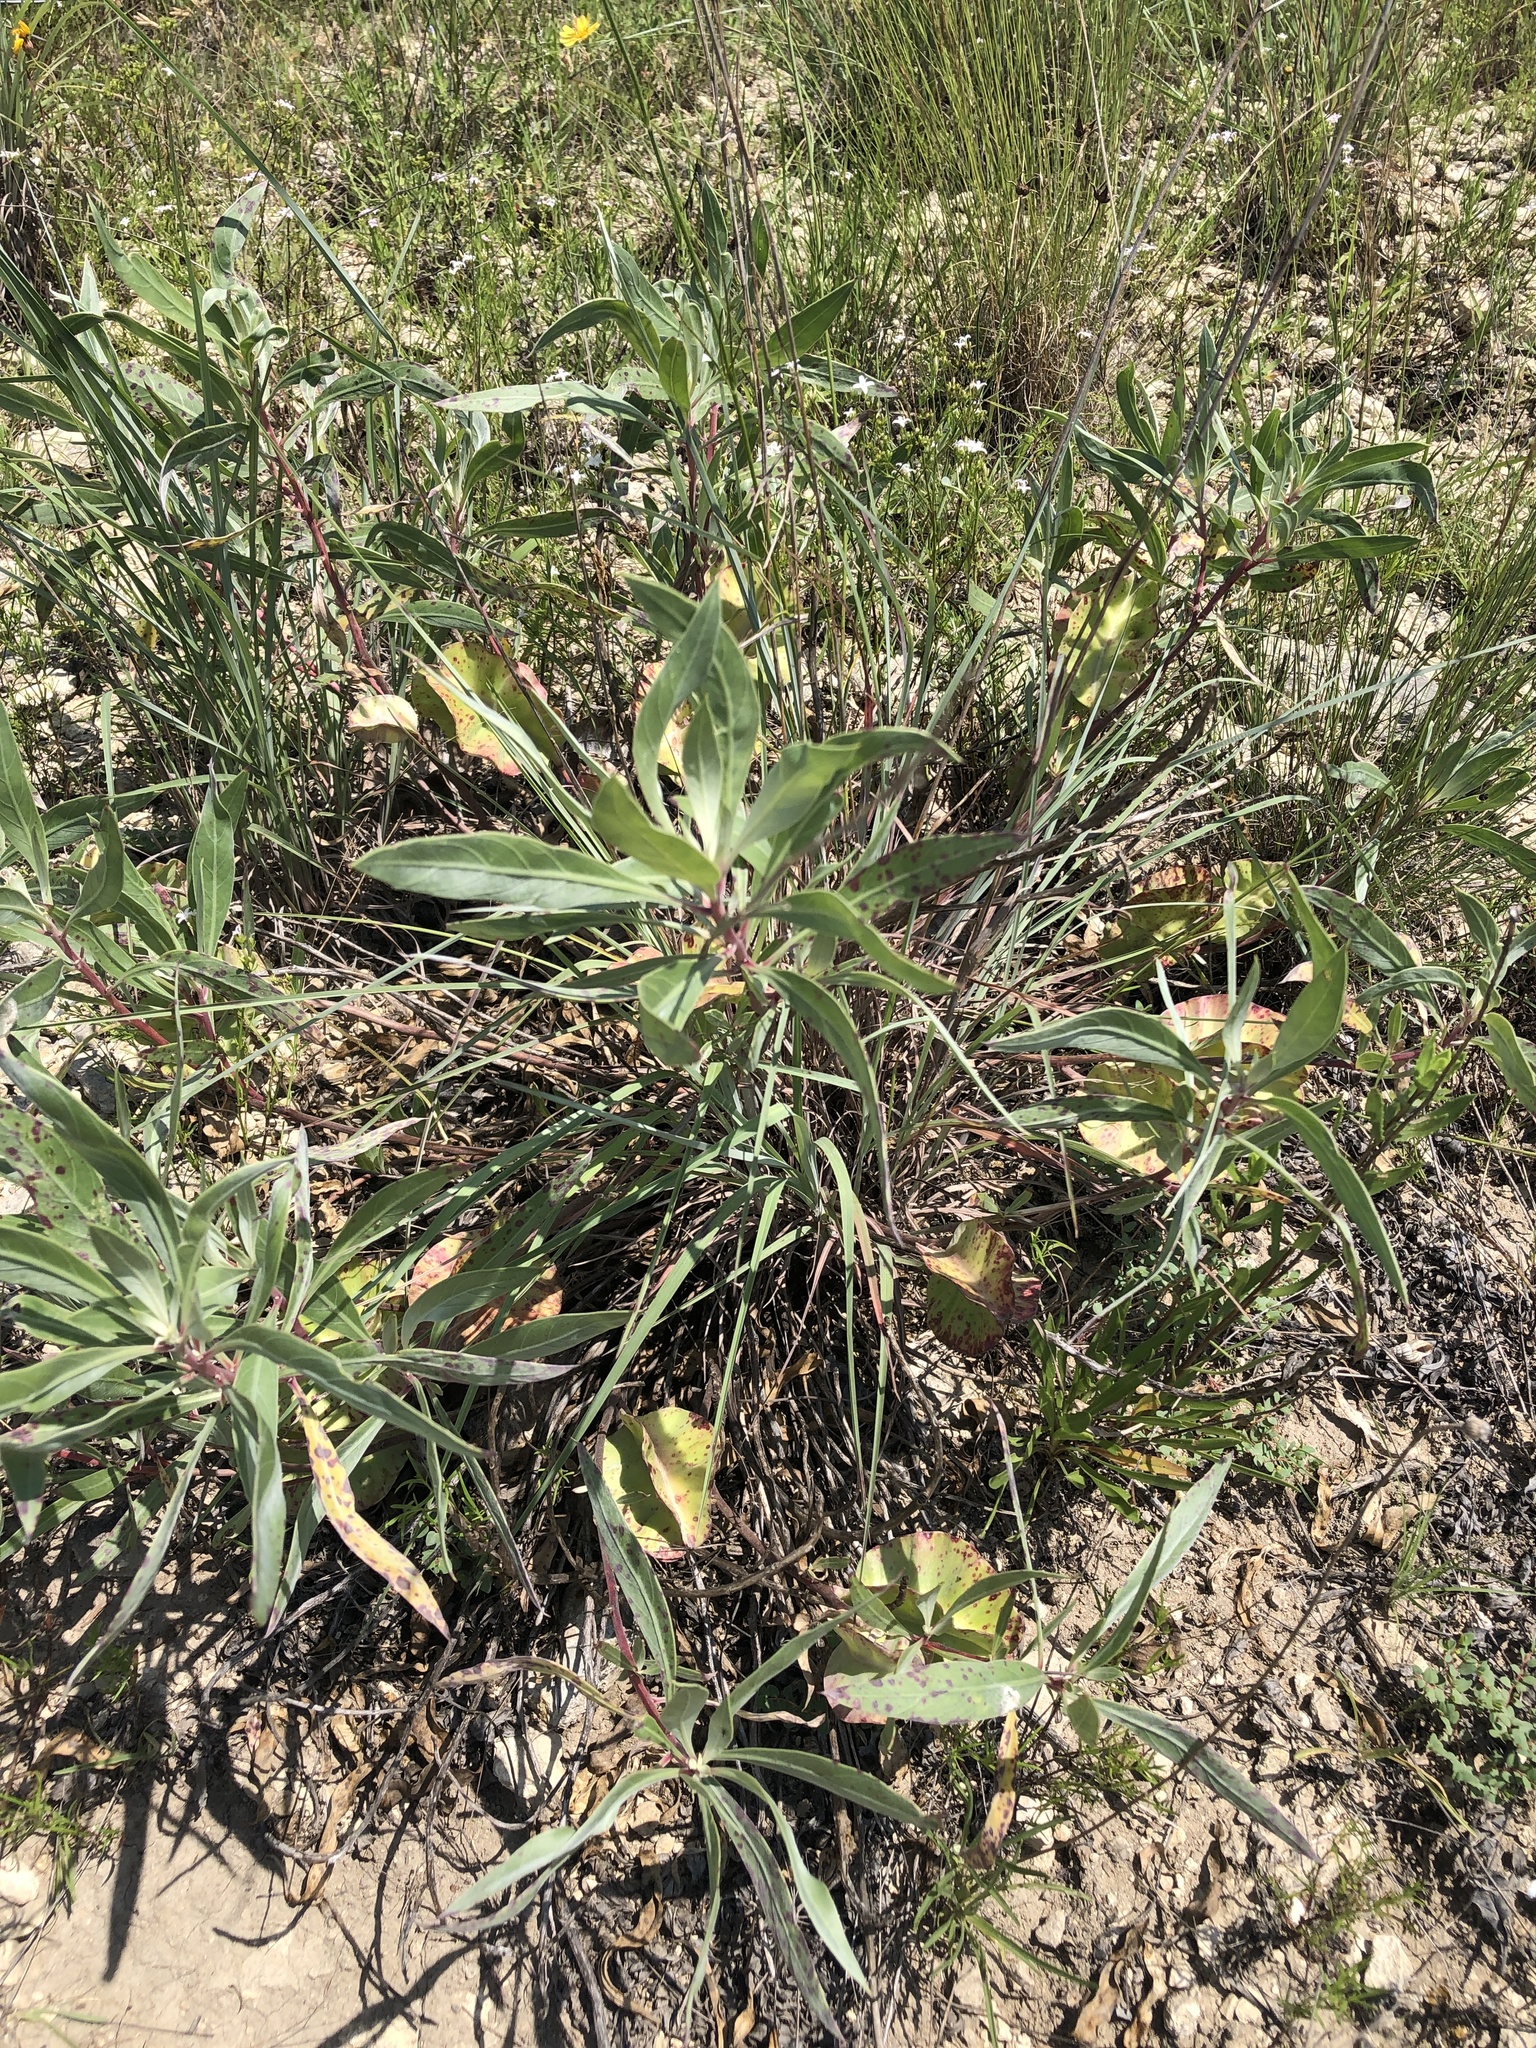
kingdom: Plantae
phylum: Tracheophyta
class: Magnoliopsida
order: Myrtales
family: Onagraceae
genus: Oenothera
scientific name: Oenothera macrocarpa
